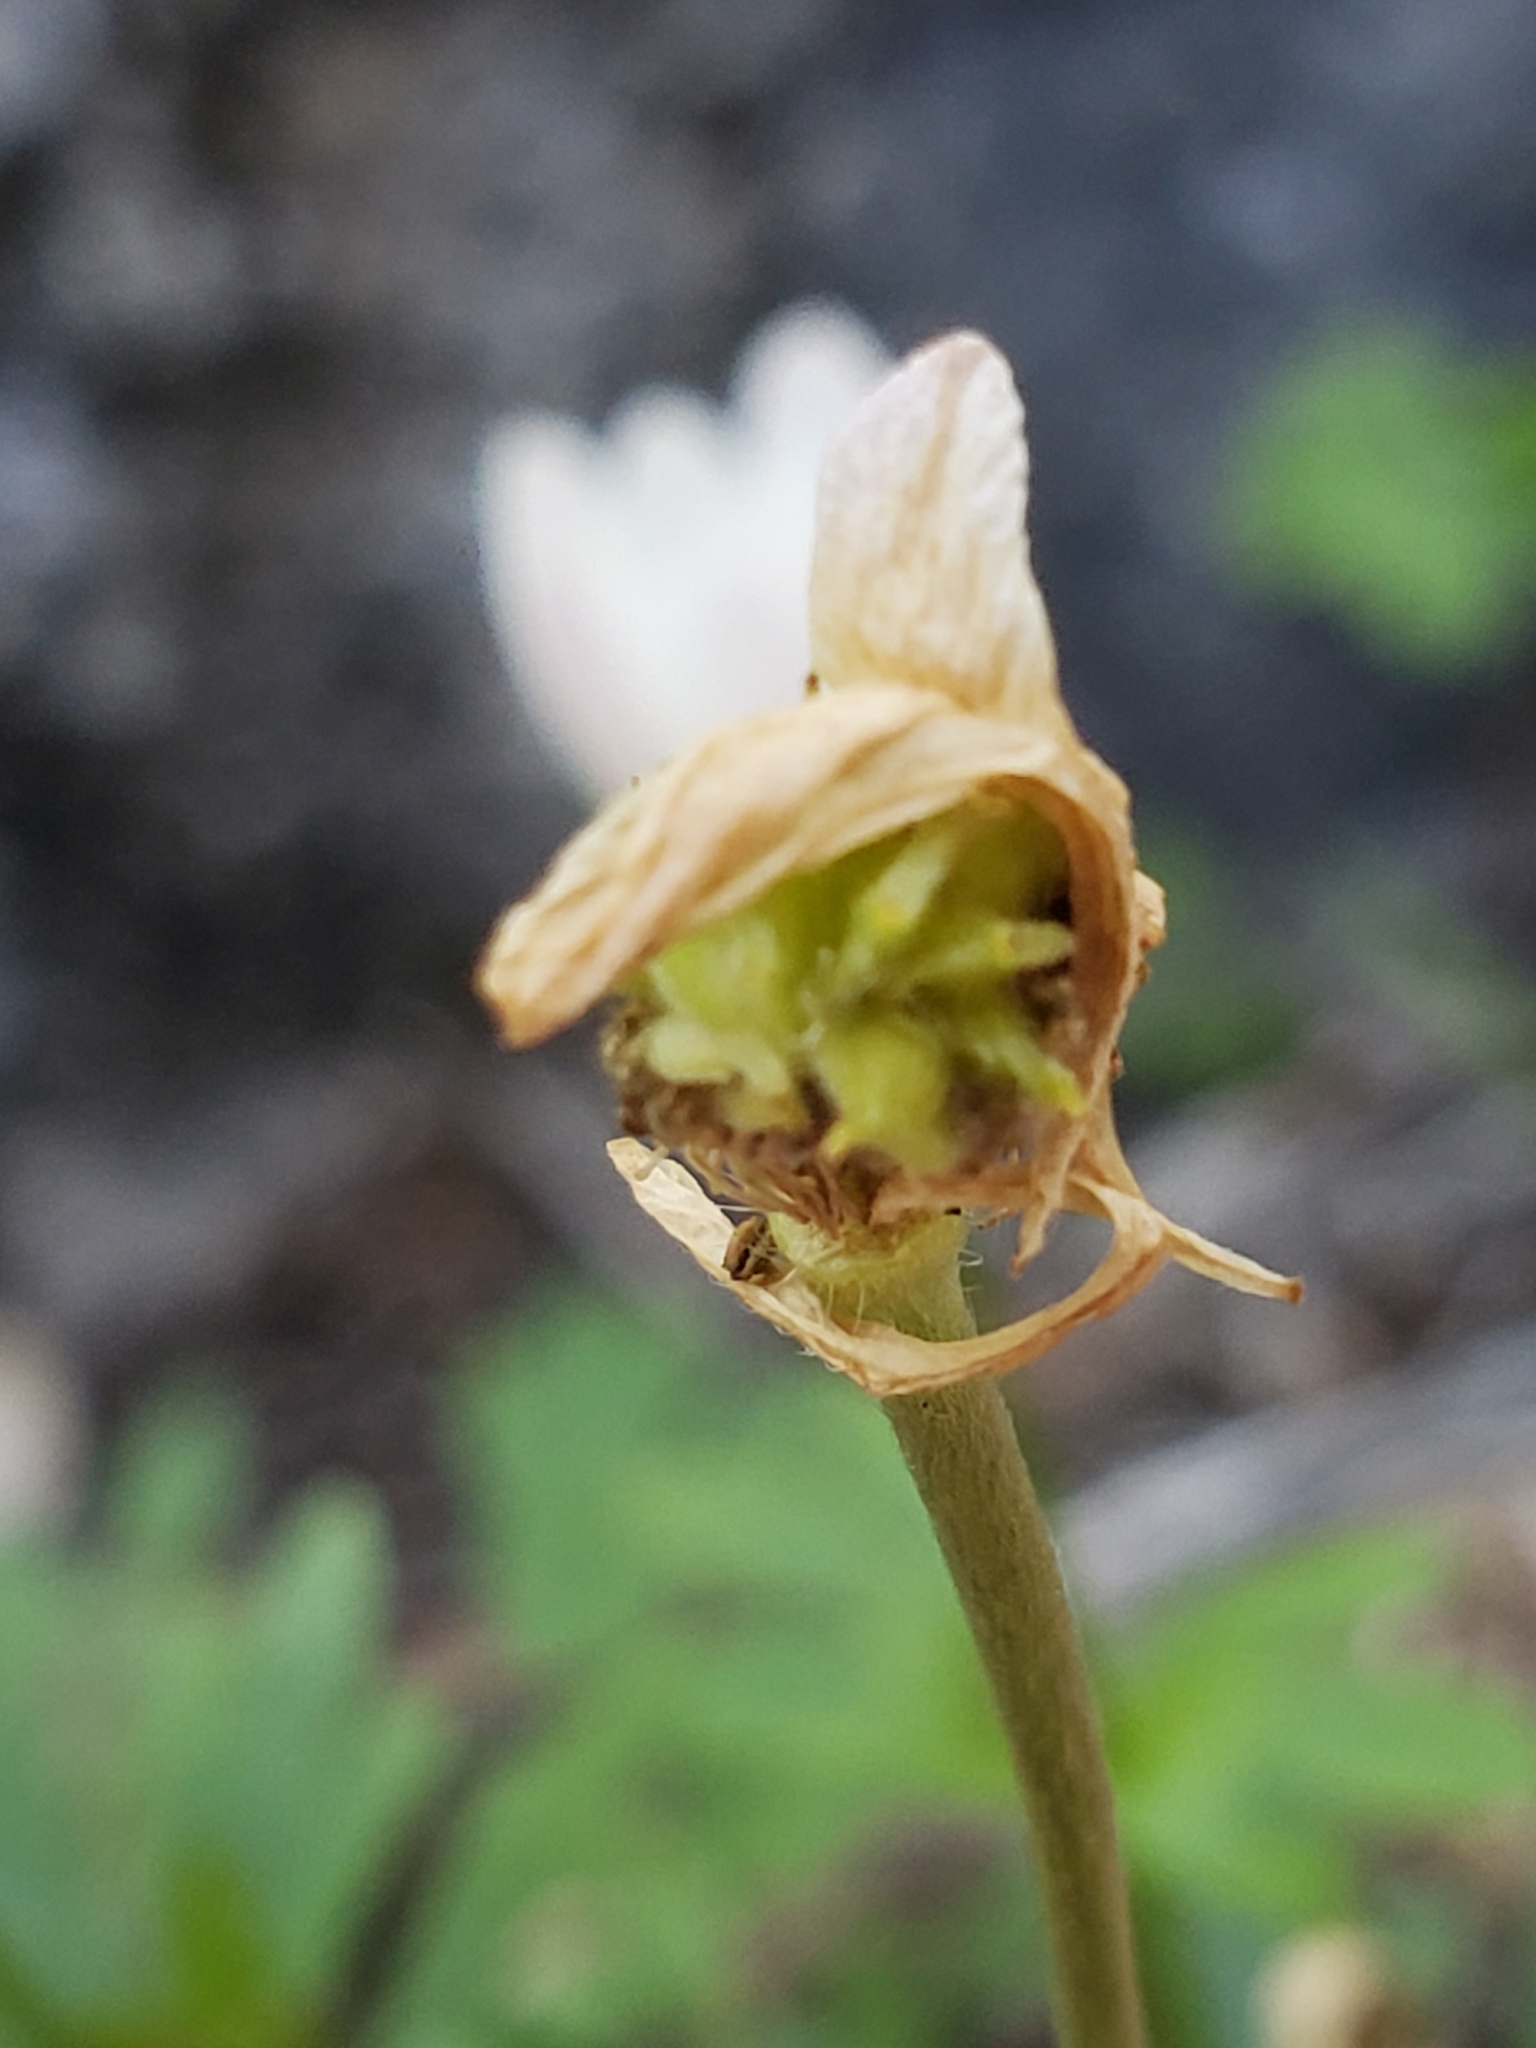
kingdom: Plantae
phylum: Tracheophyta
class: Magnoliopsida
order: Ranunculales
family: Ranunculaceae
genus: Anemone
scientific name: Anemone edwardsiana
